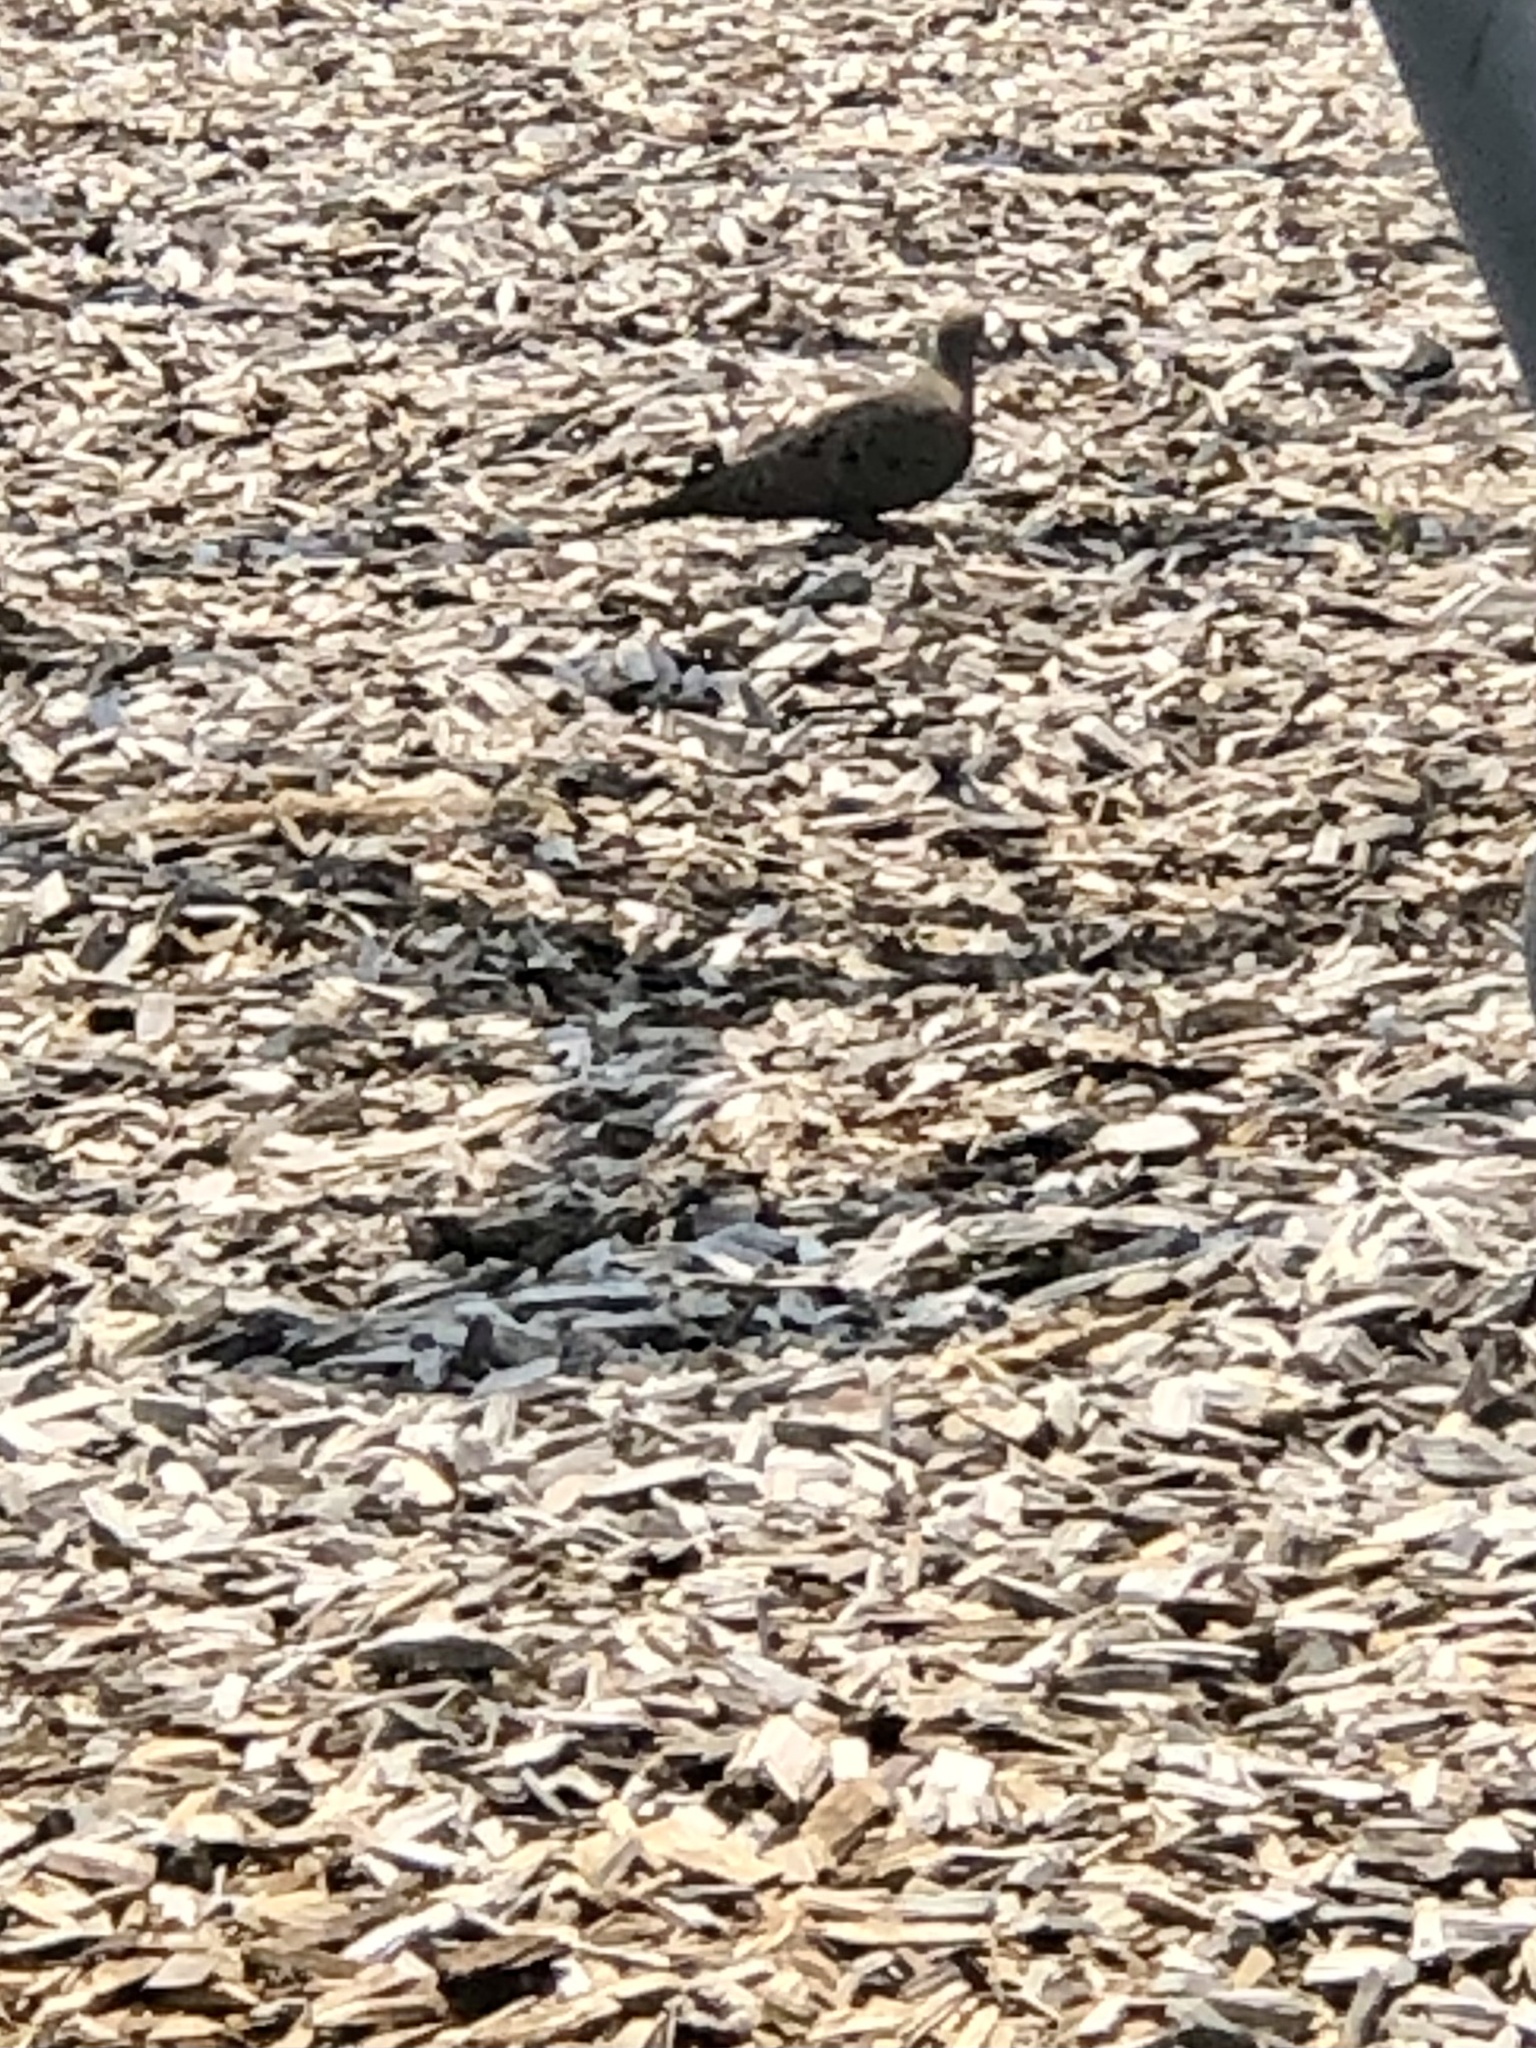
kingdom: Animalia
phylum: Chordata
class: Aves
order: Columbiformes
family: Columbidae
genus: Zenaida
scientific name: Zenaida macroura
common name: Mourning dove
